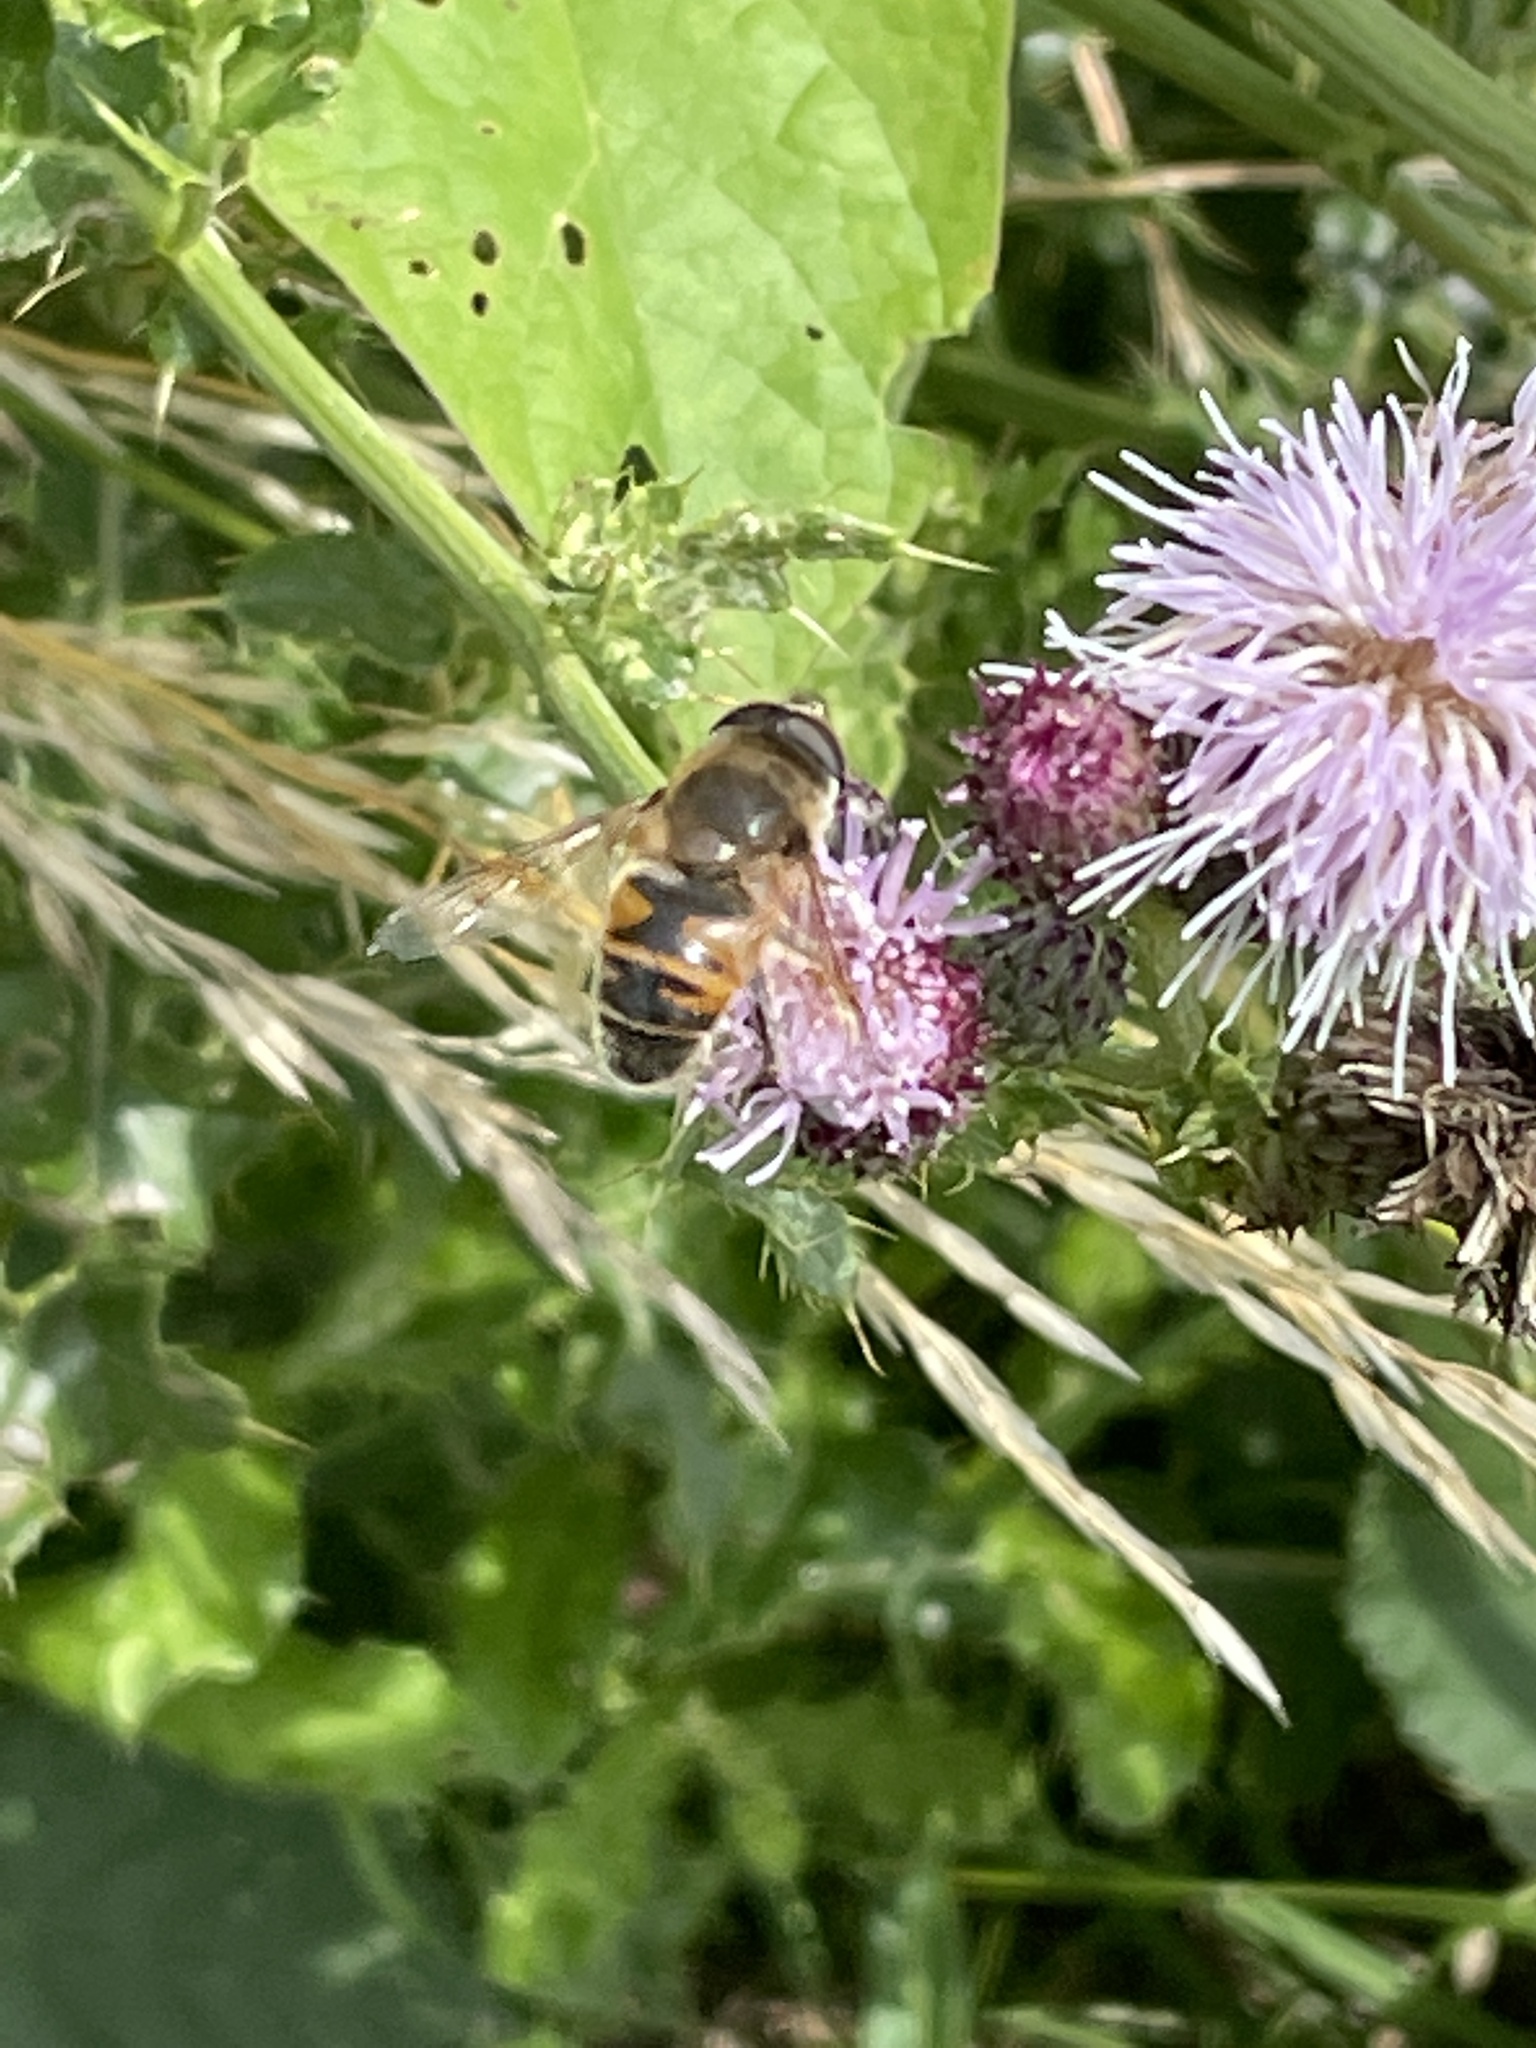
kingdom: Animalia
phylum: Arthropoda
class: Insecta
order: Diptera
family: Syrphidae
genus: Eristalis
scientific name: Eristalis tenax
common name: Drone fly
